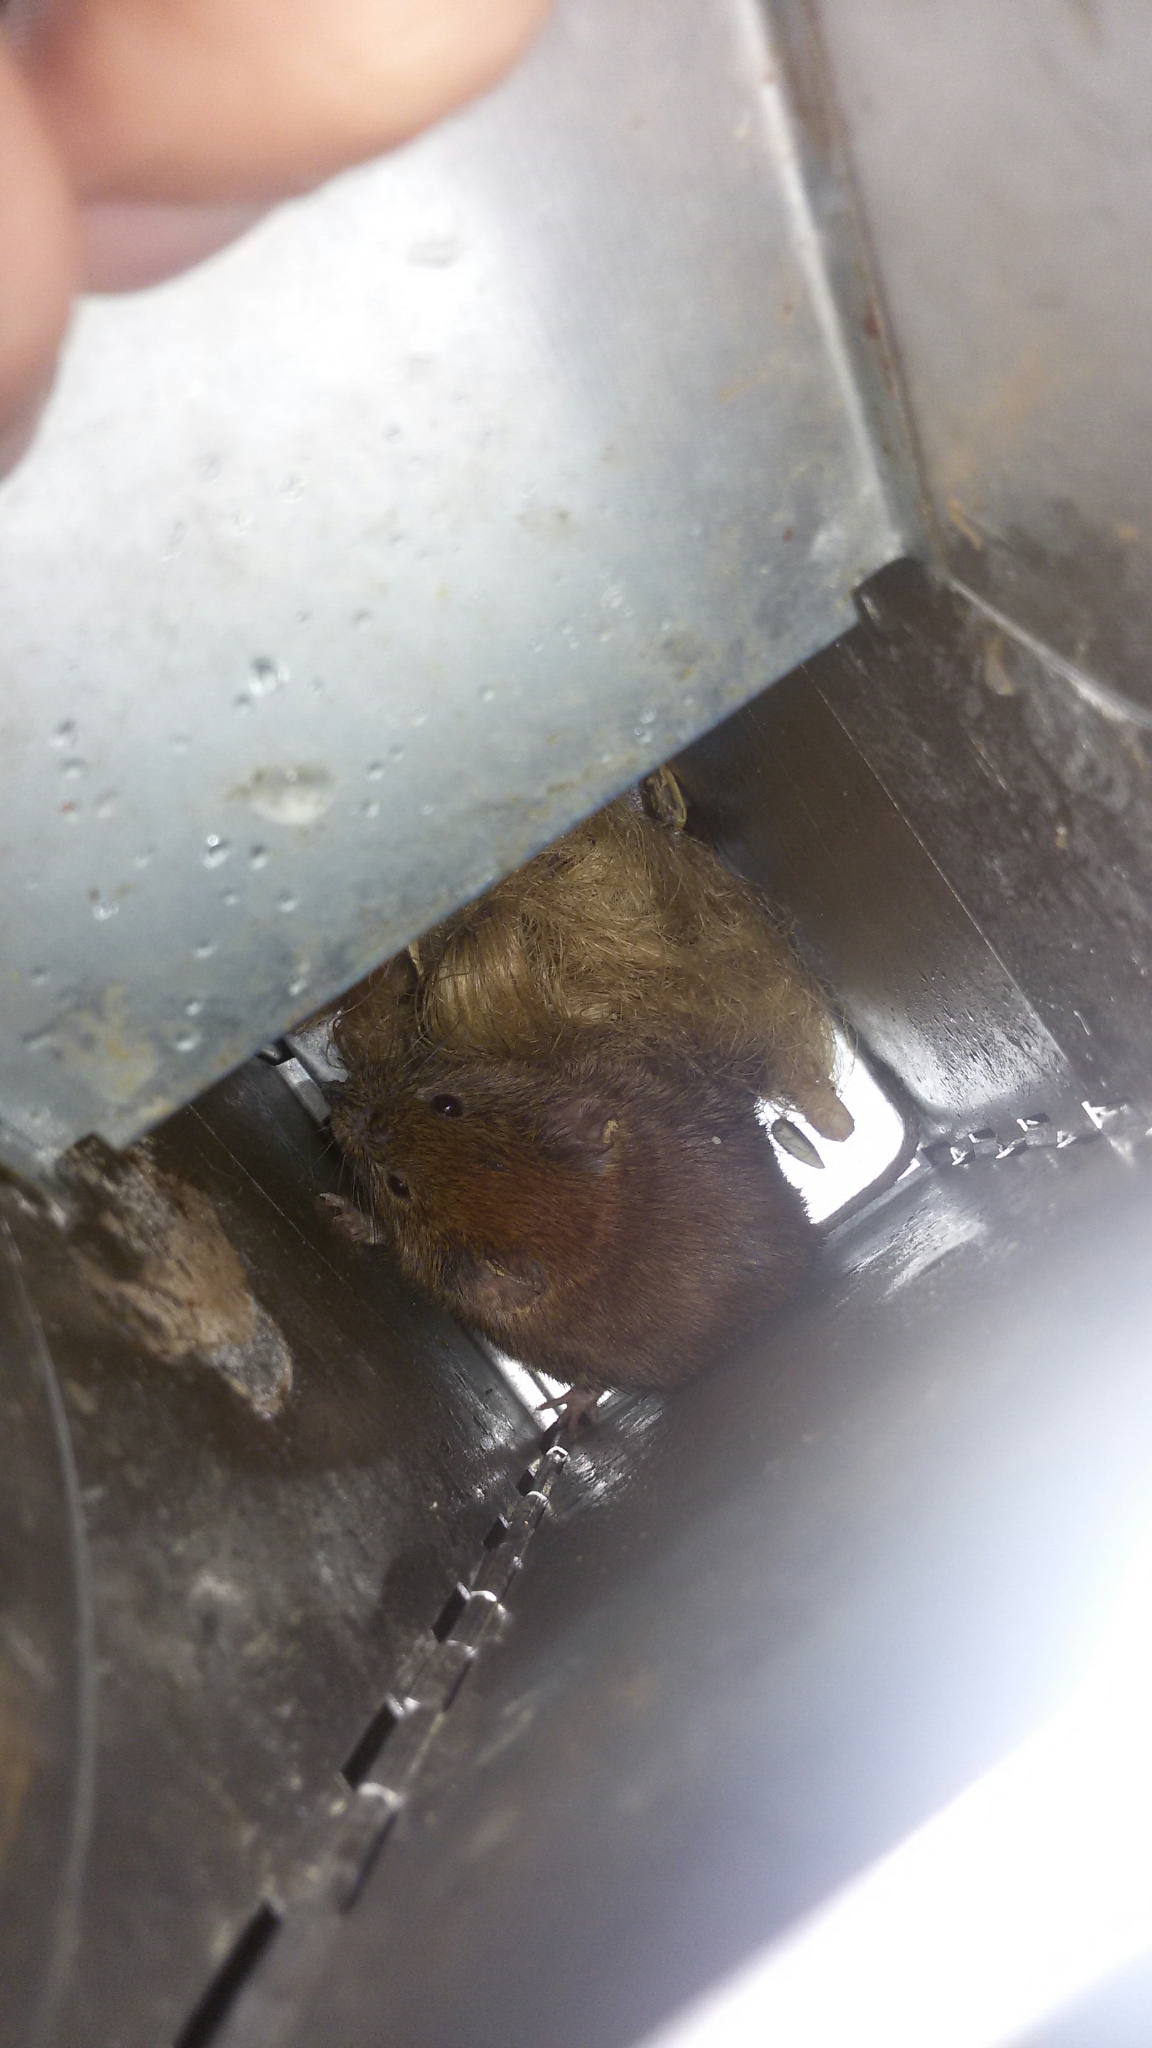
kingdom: Animalia
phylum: Chordata
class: Mammalia
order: Rodentia
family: Cricetidae
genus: Myodes
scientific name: Myodes glareolus
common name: Bank vole
